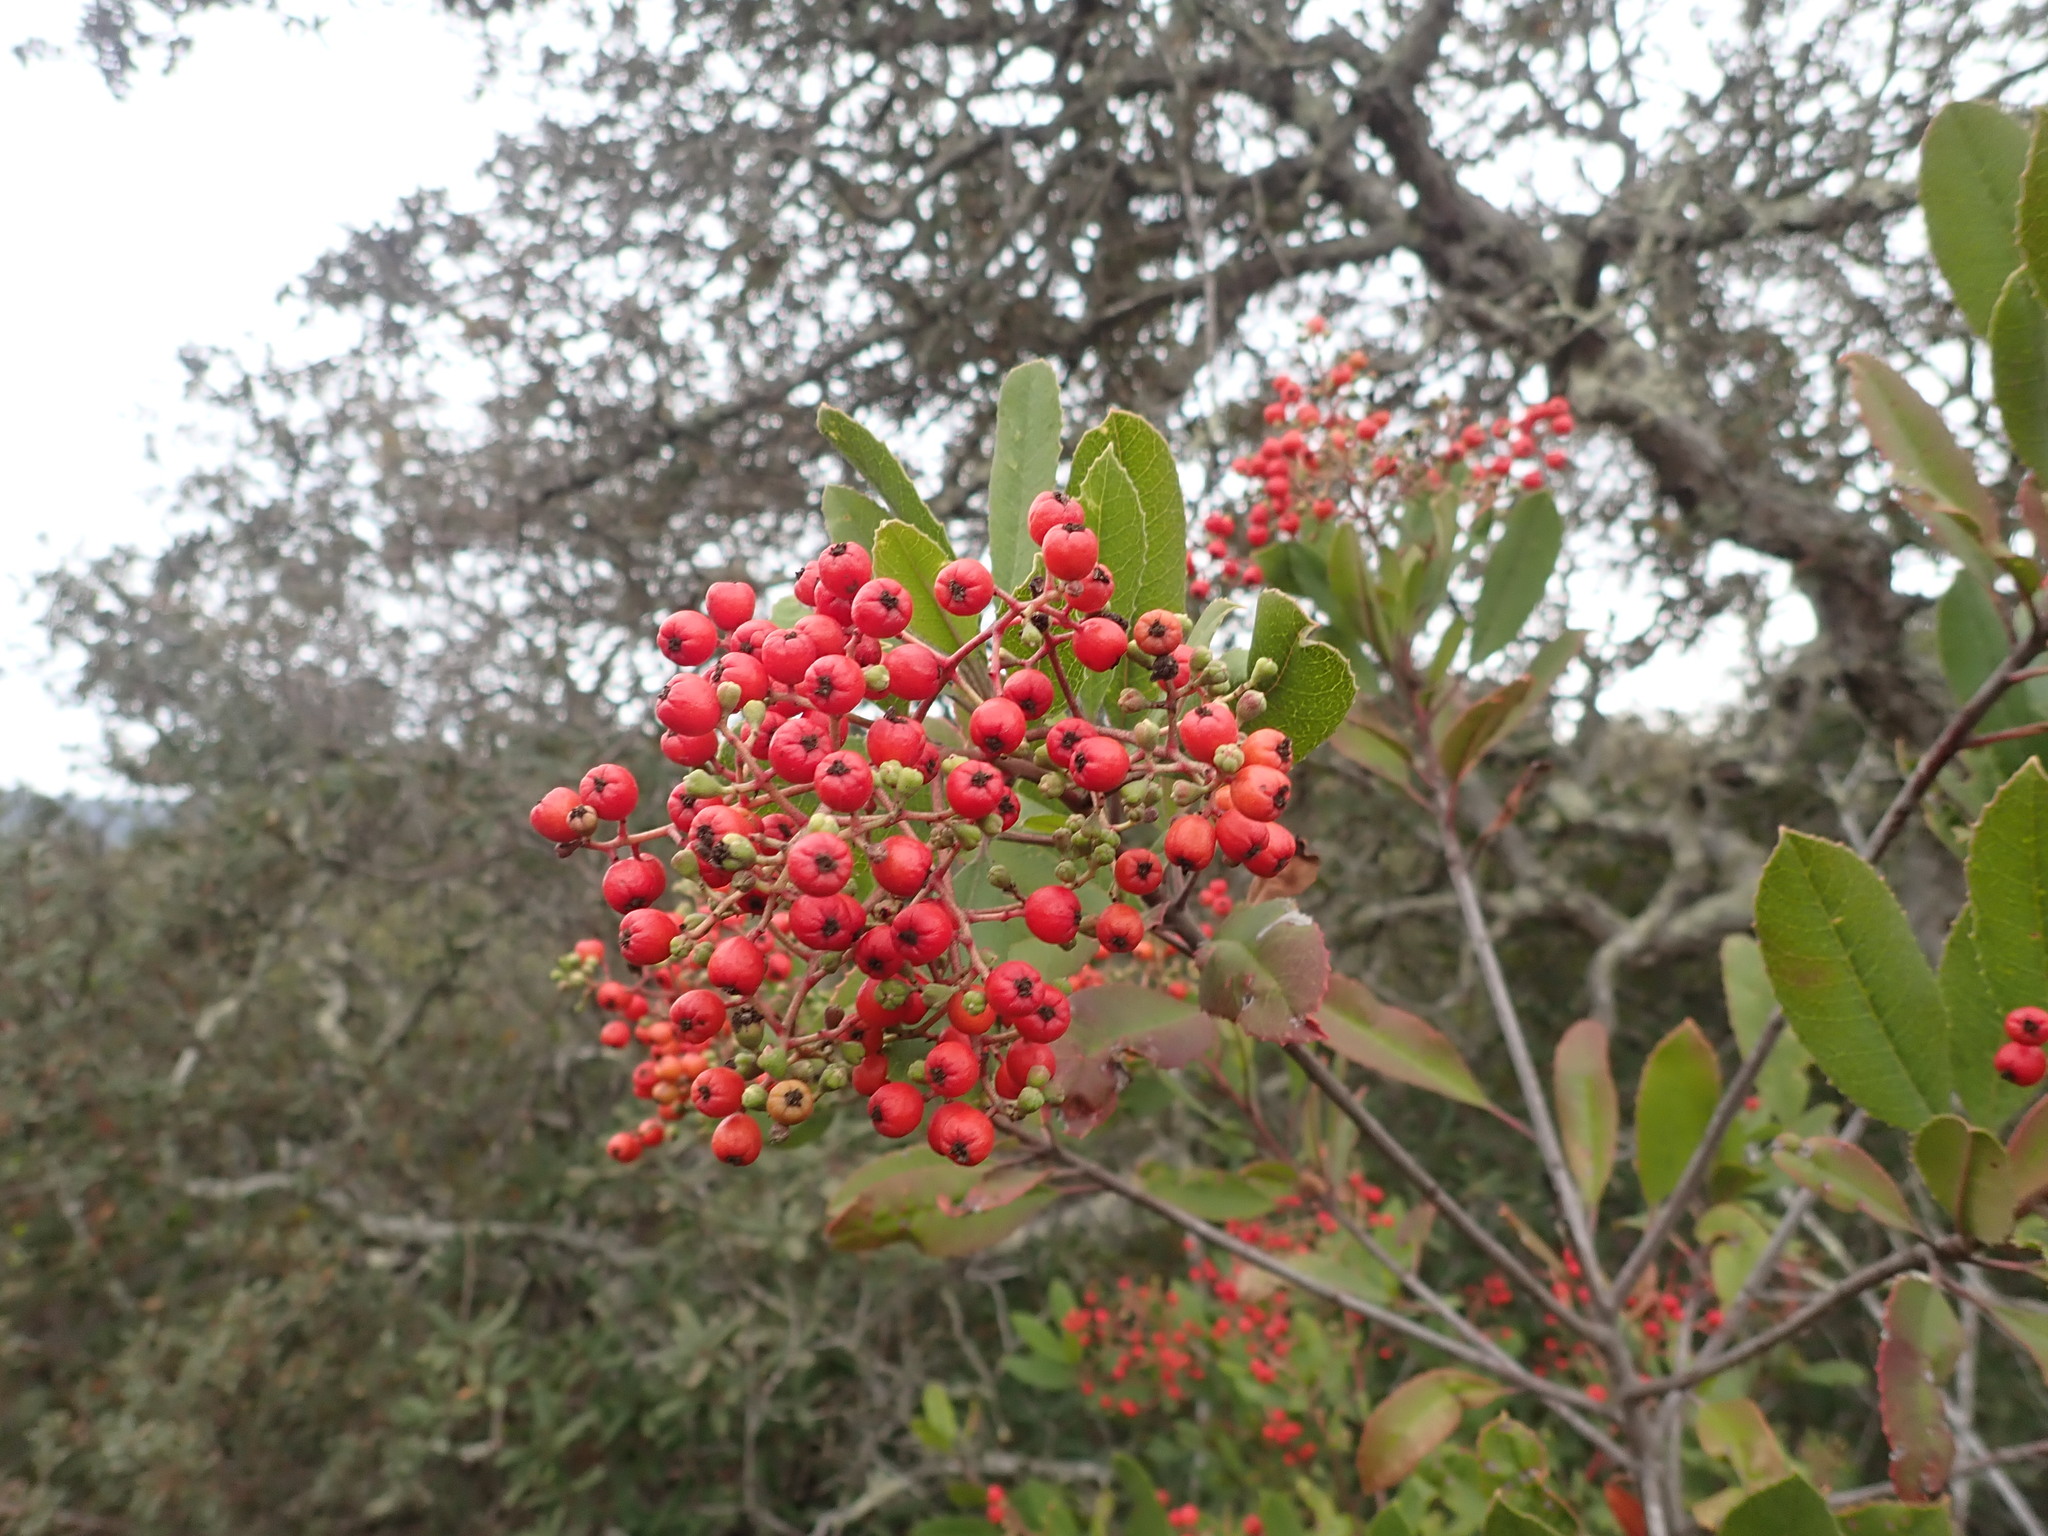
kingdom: Plantae
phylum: Tracheophyta
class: Magnoliopsida
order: Rosales
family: Rosaceae
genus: Heteromeles
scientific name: Heteromeles arbutifolia
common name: California-holly
